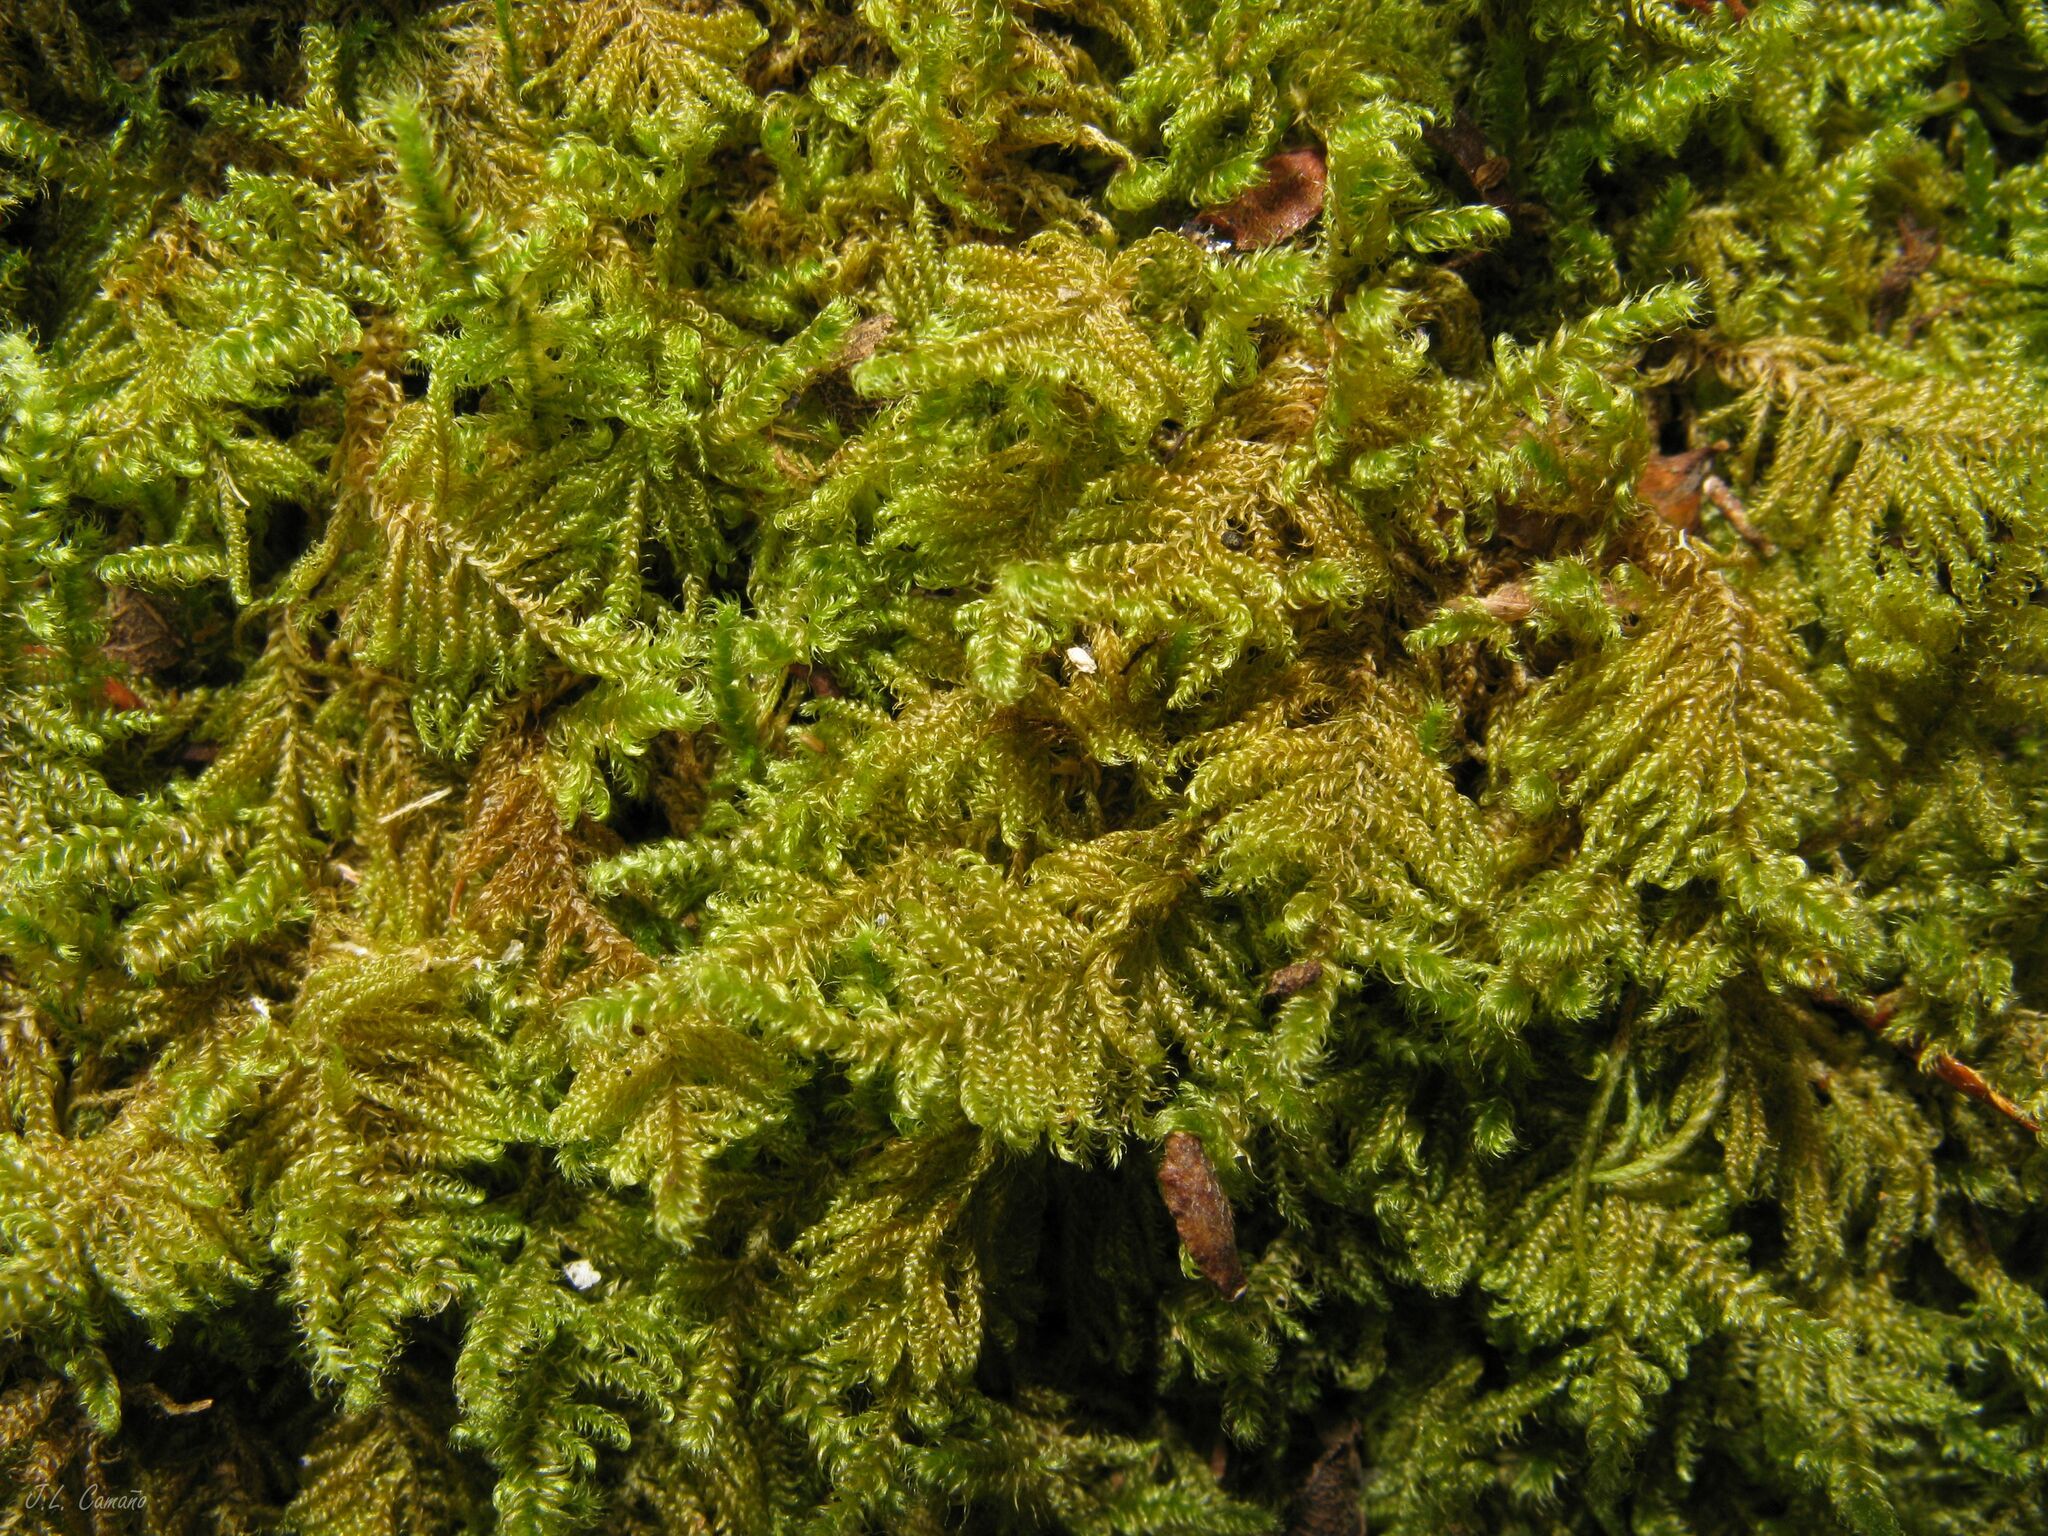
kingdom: Plantae
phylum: Bryophyta
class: Bryopsida
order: Hypnales
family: Myuriaceae
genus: Ctenidium
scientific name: Ctenidium molluscum
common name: Chalk comb-moss
